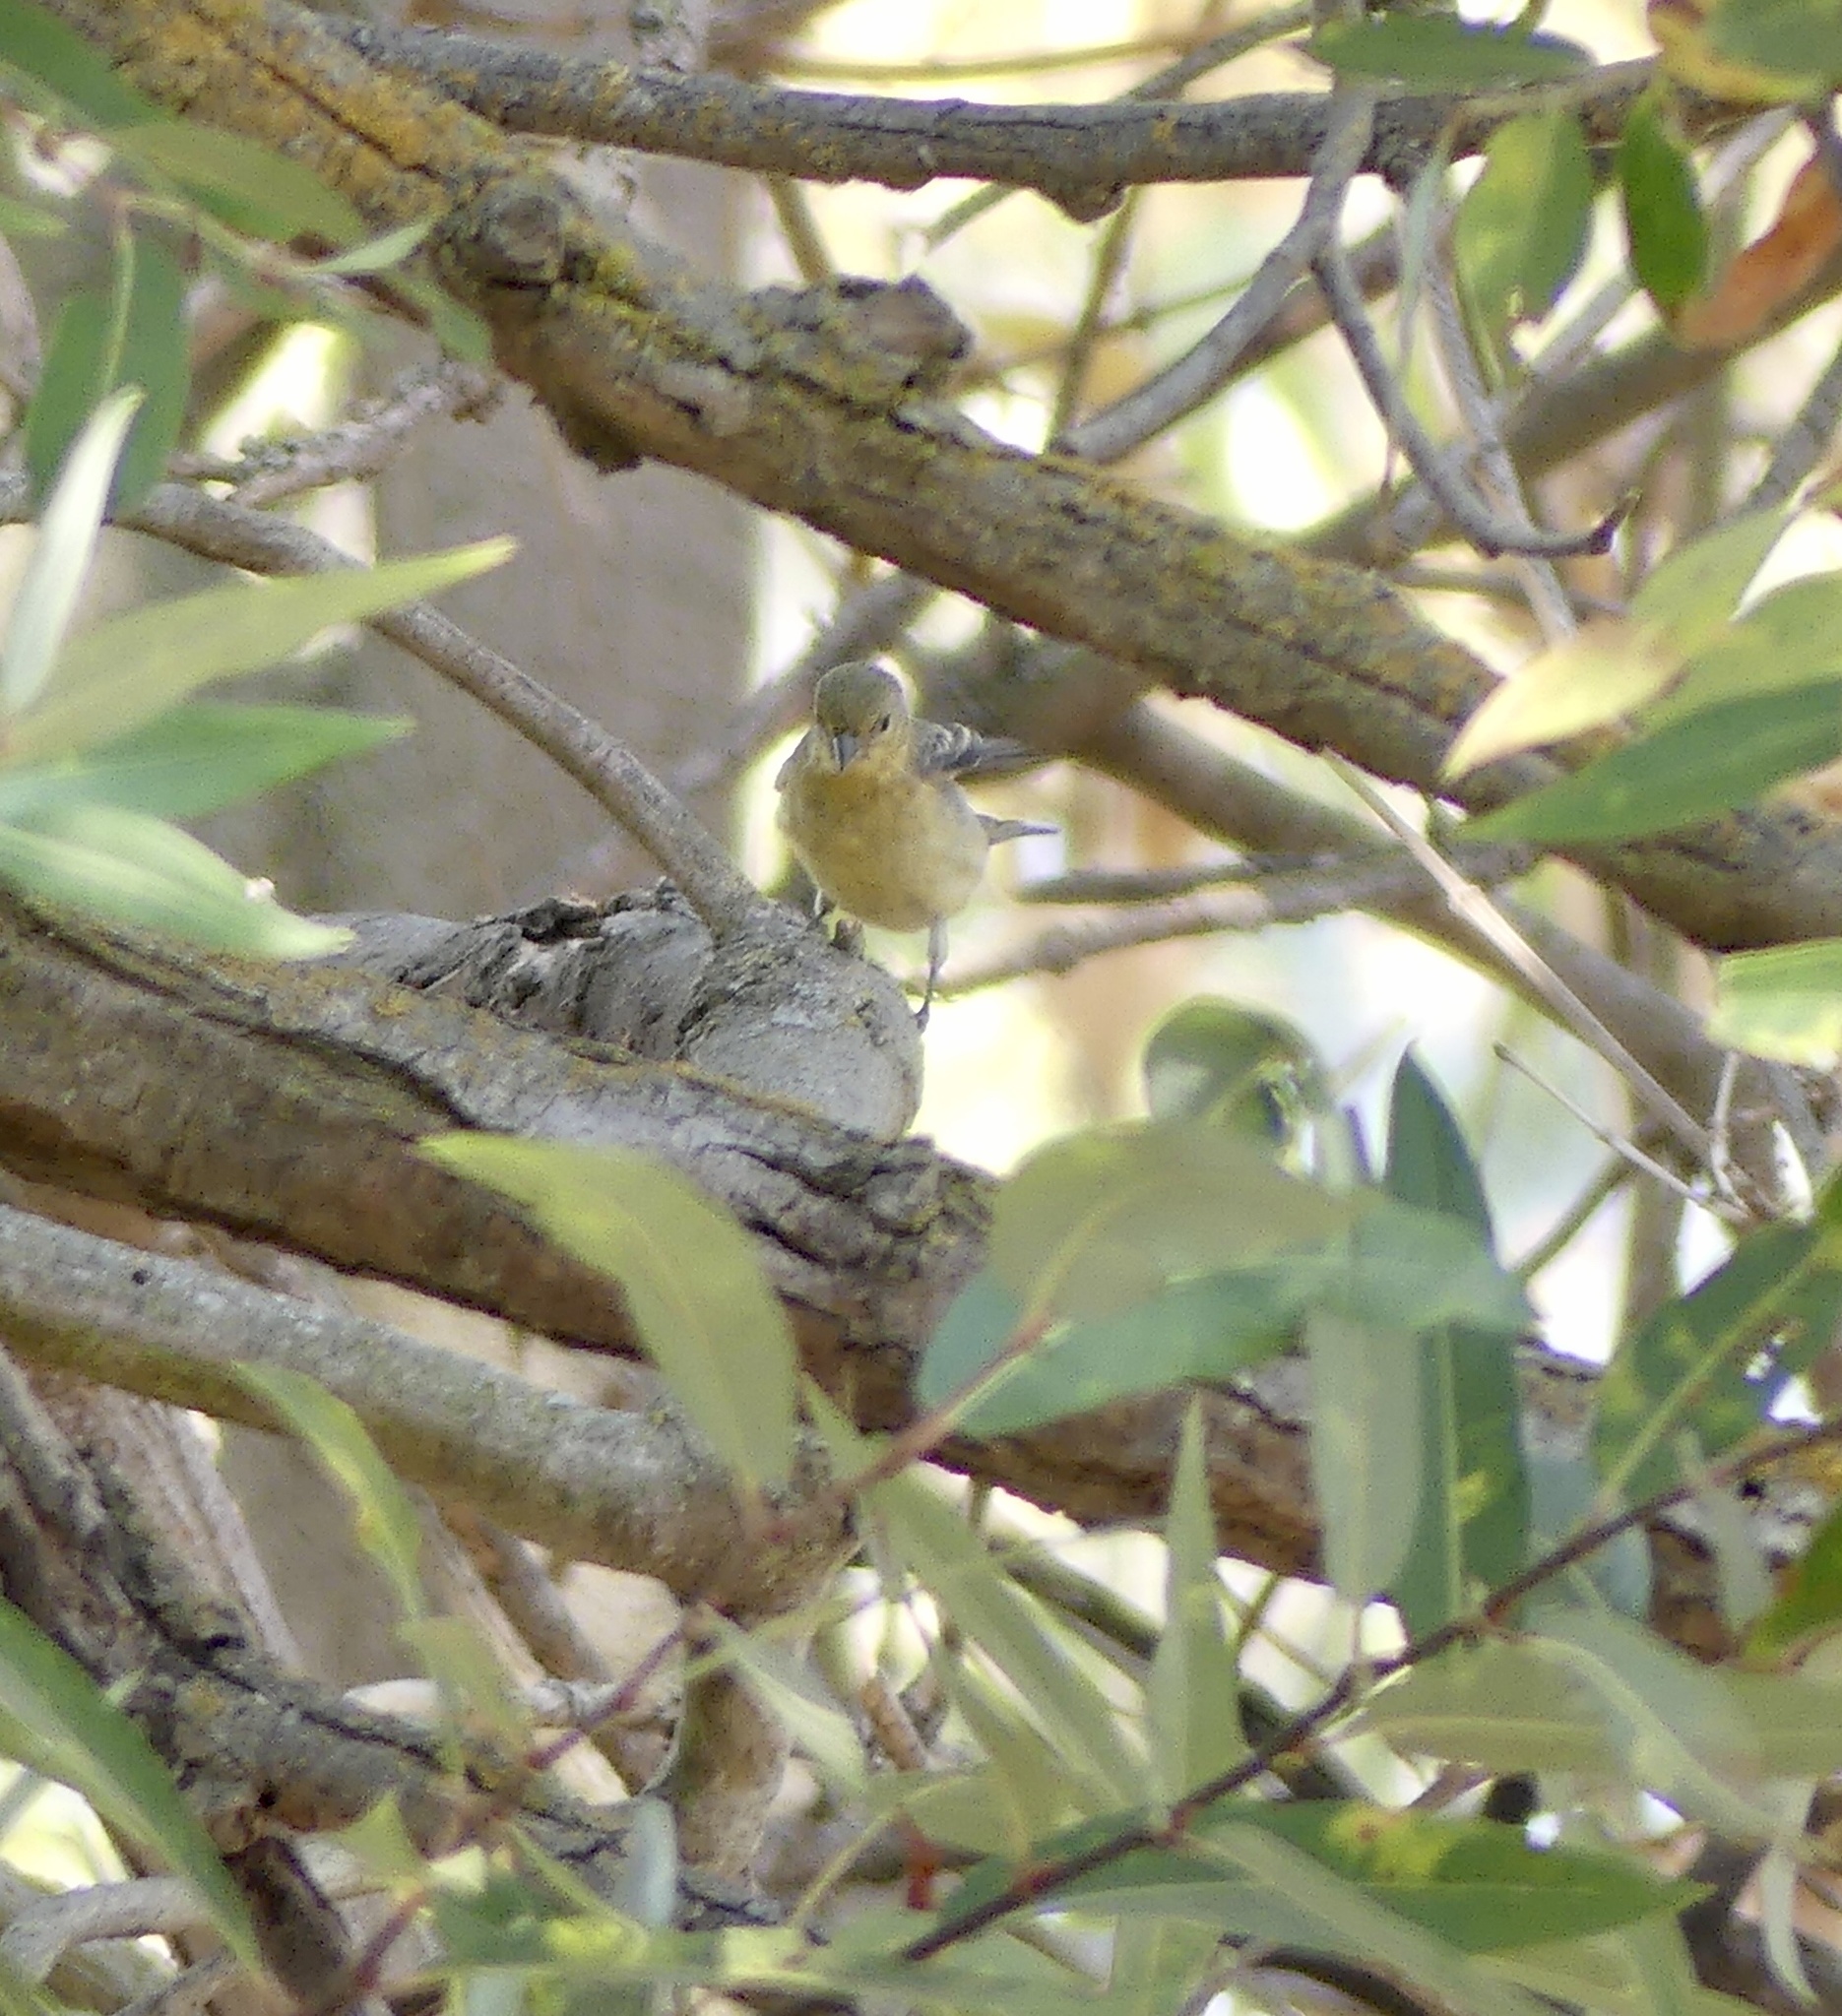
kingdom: Animalia
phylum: Chordata
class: Aves
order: Passeriformes
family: Fringillidae
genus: Spinus
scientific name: Spinus psaltria
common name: Lesser goldfinch
